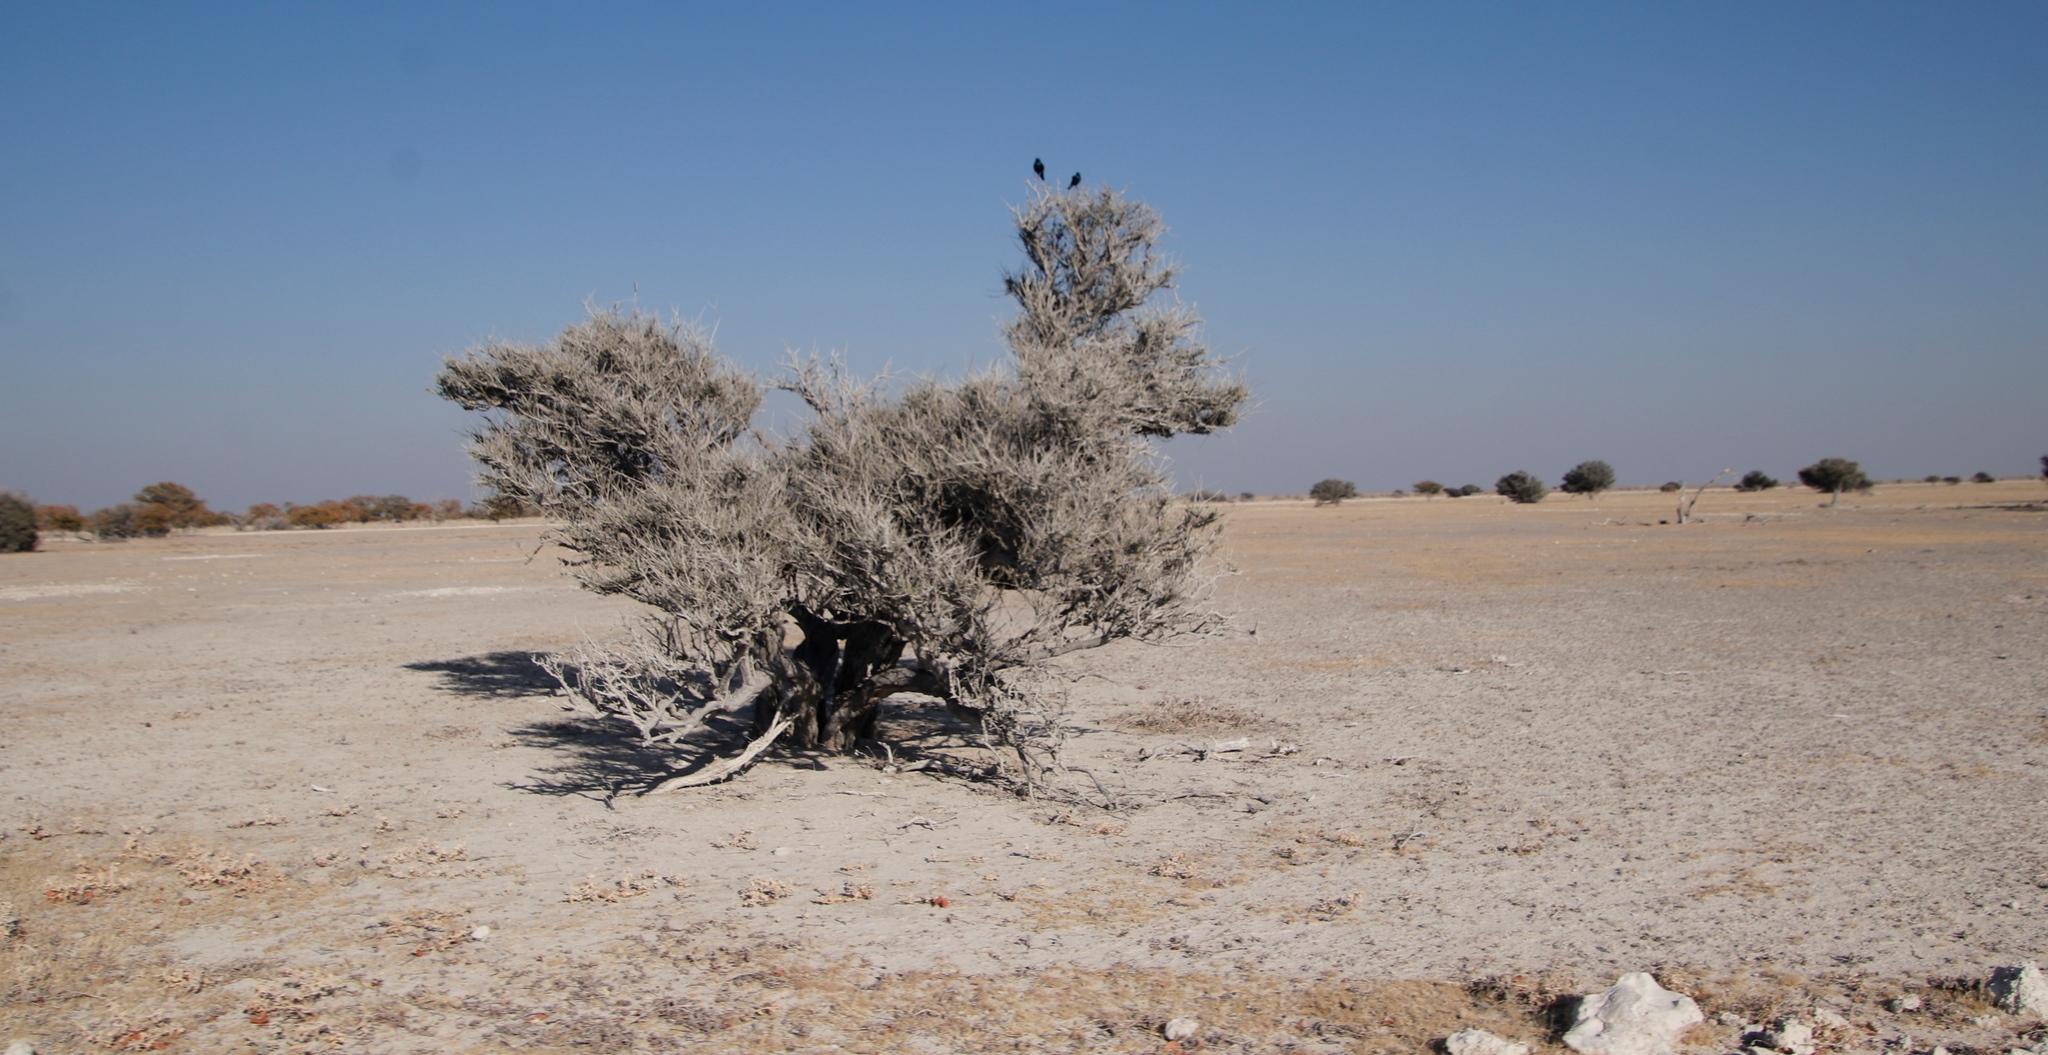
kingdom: Plantae
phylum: Tracheophyta
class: Magnoliopsida
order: Brassicales
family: Capparaceae
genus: Boscia
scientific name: Boscia foetida
